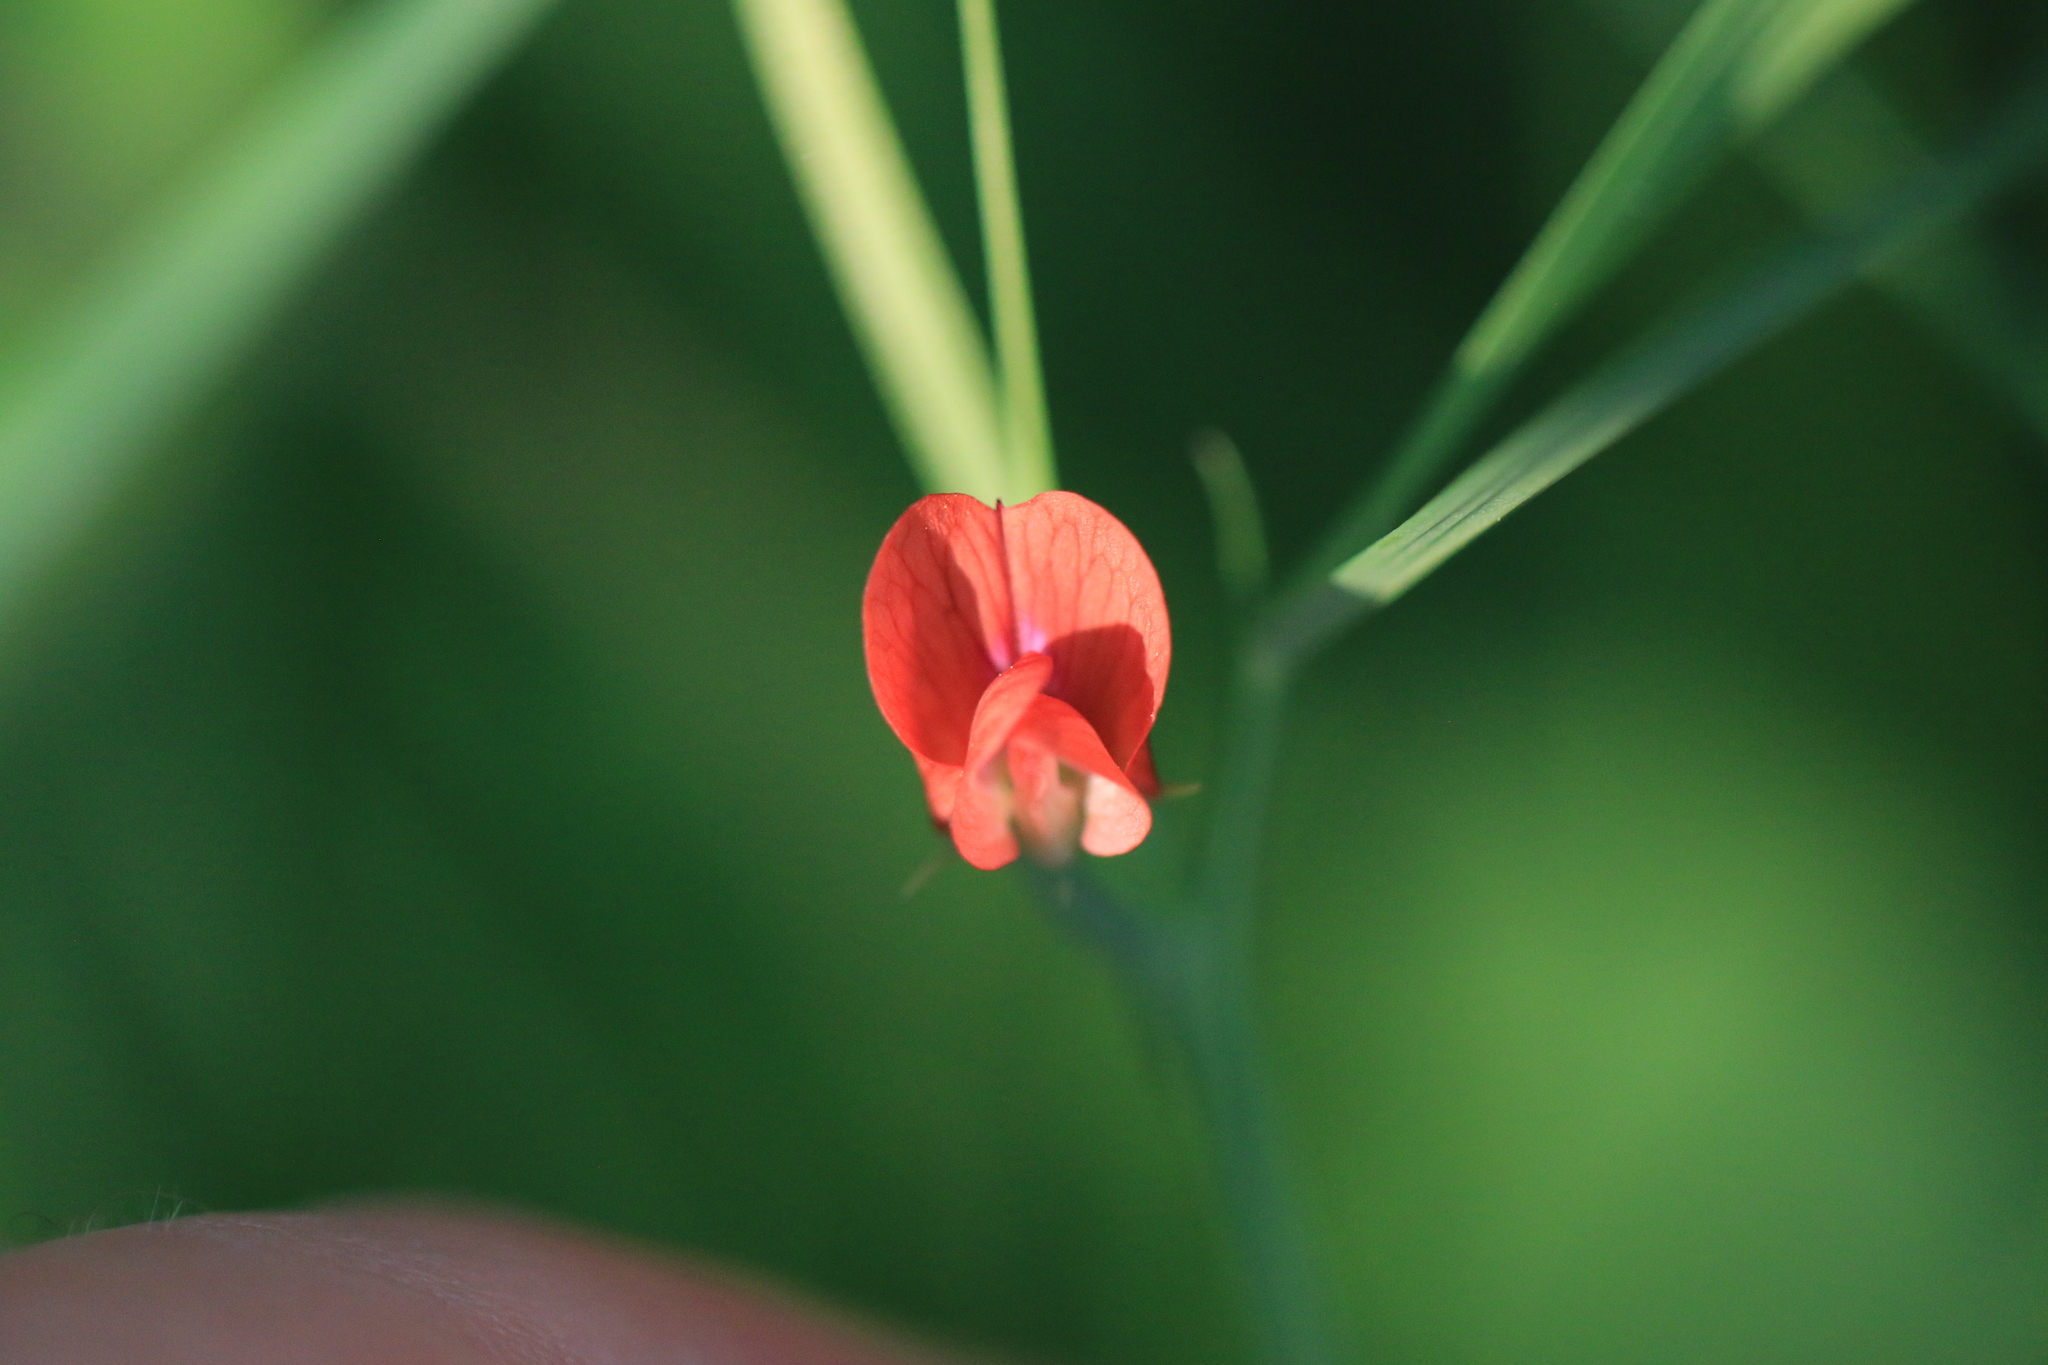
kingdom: Plantae
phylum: Tracheophyta
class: Magnoliopsida
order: Fabales
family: Fabaceae
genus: Lathyrus
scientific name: Lathyrus sphaericus
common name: Grass pea
